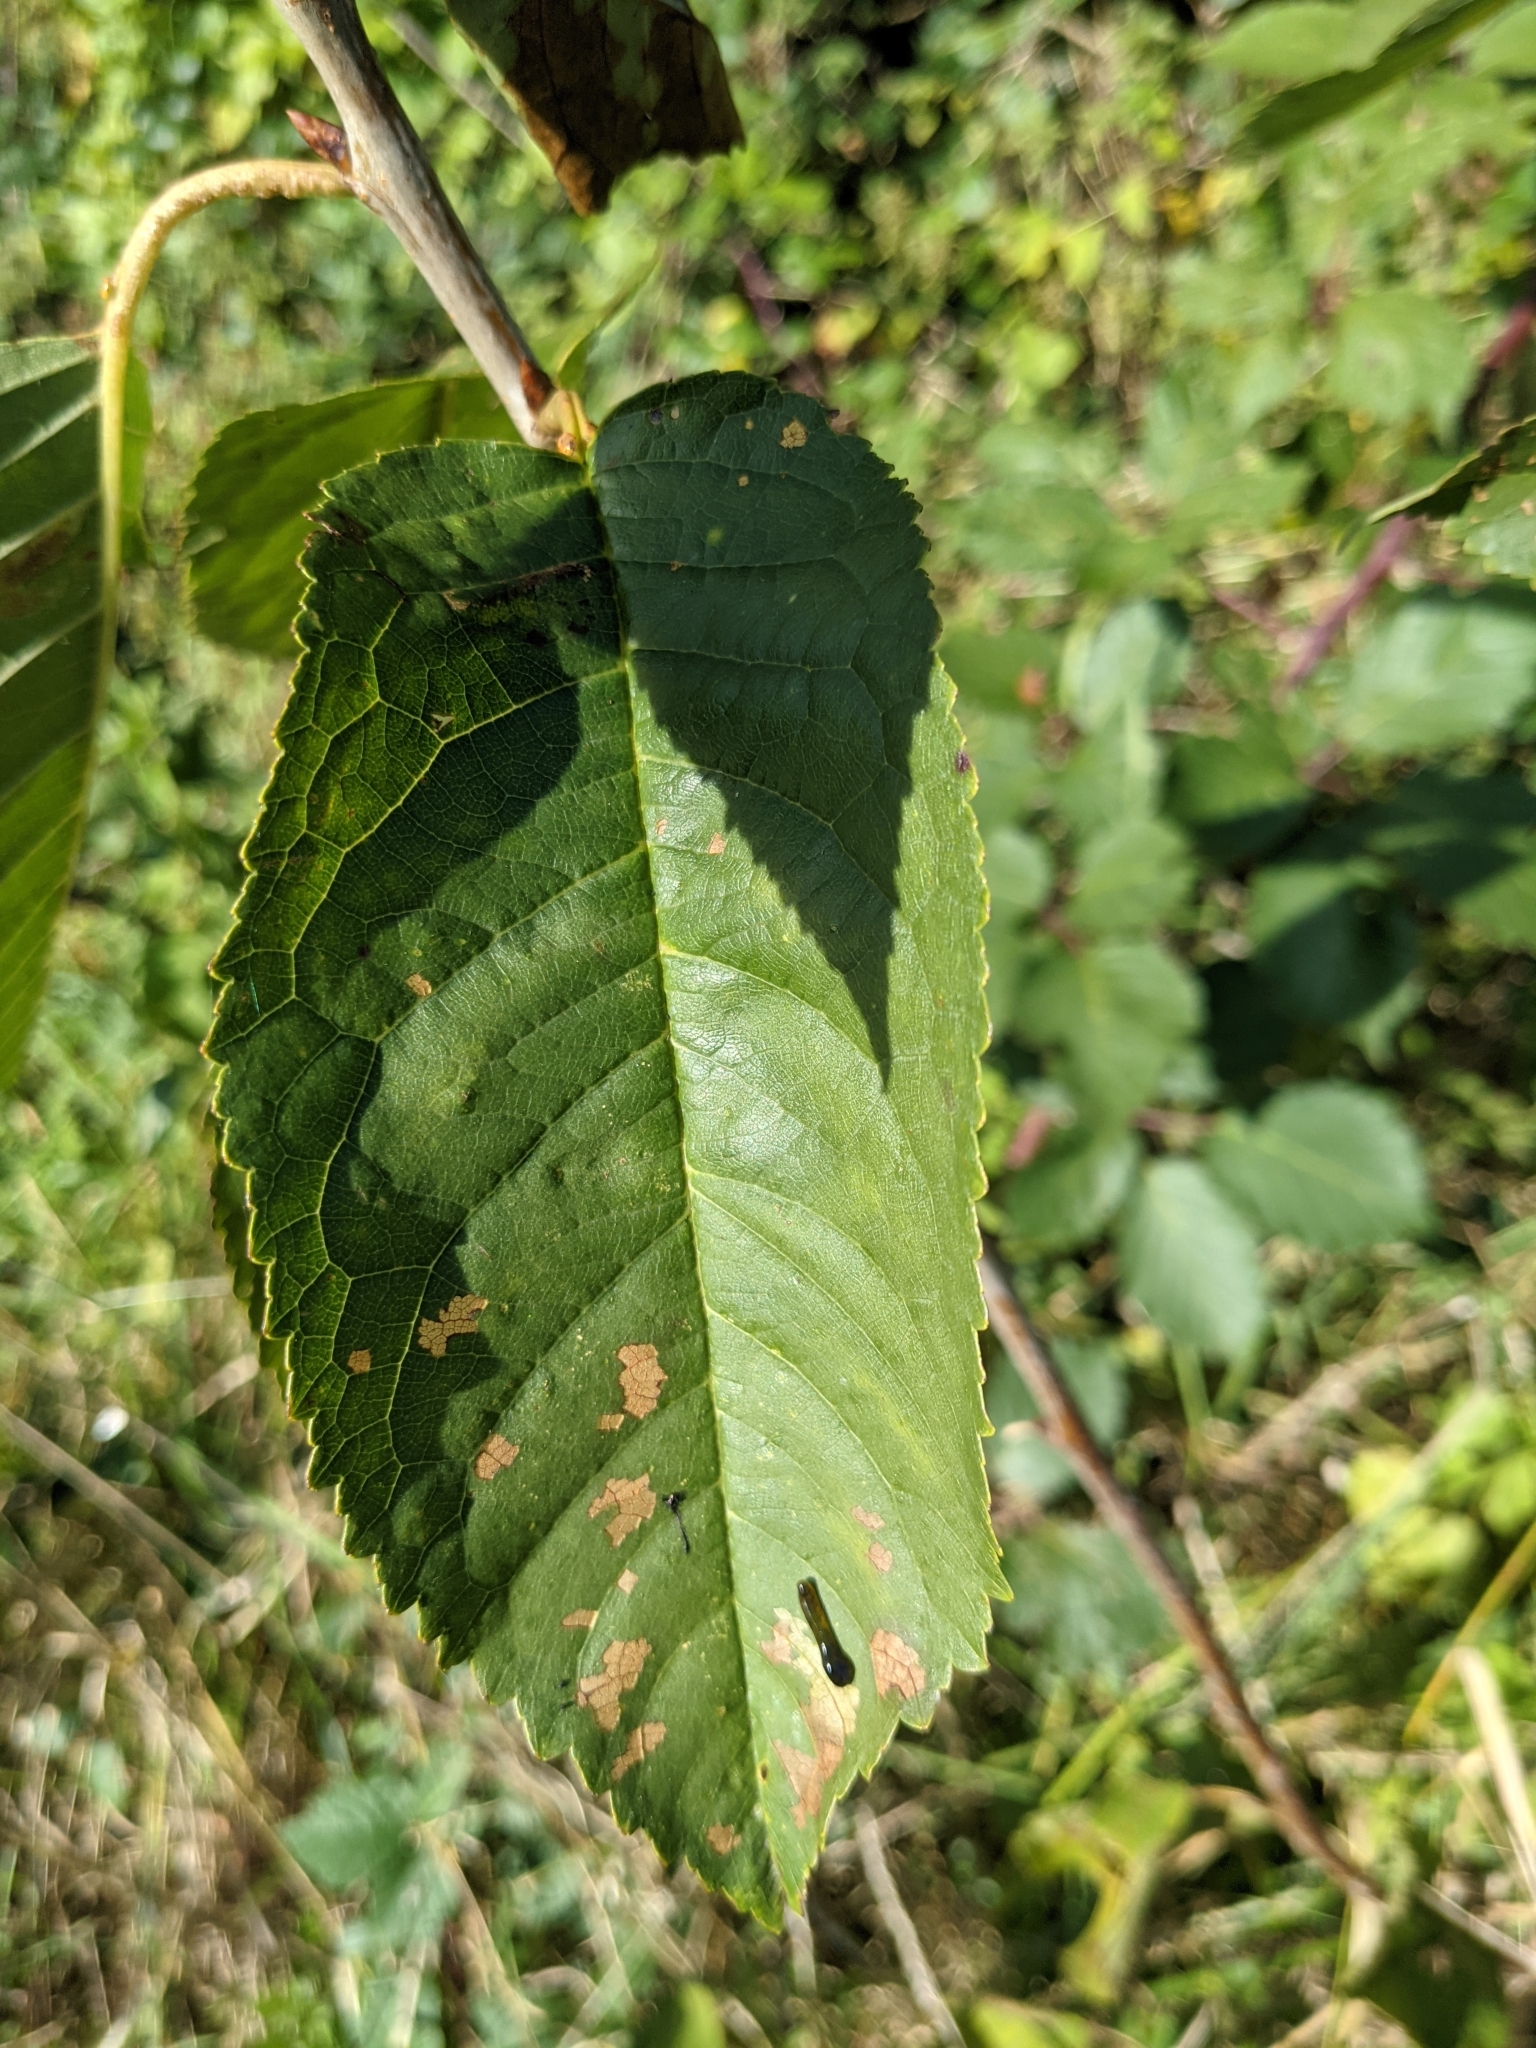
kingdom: Animalia
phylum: Arthropoda
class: Insecta
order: Hymenoptera
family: Tenthredinidae
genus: Caliroa
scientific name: Caliroa cerasi
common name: Pear sawfly
